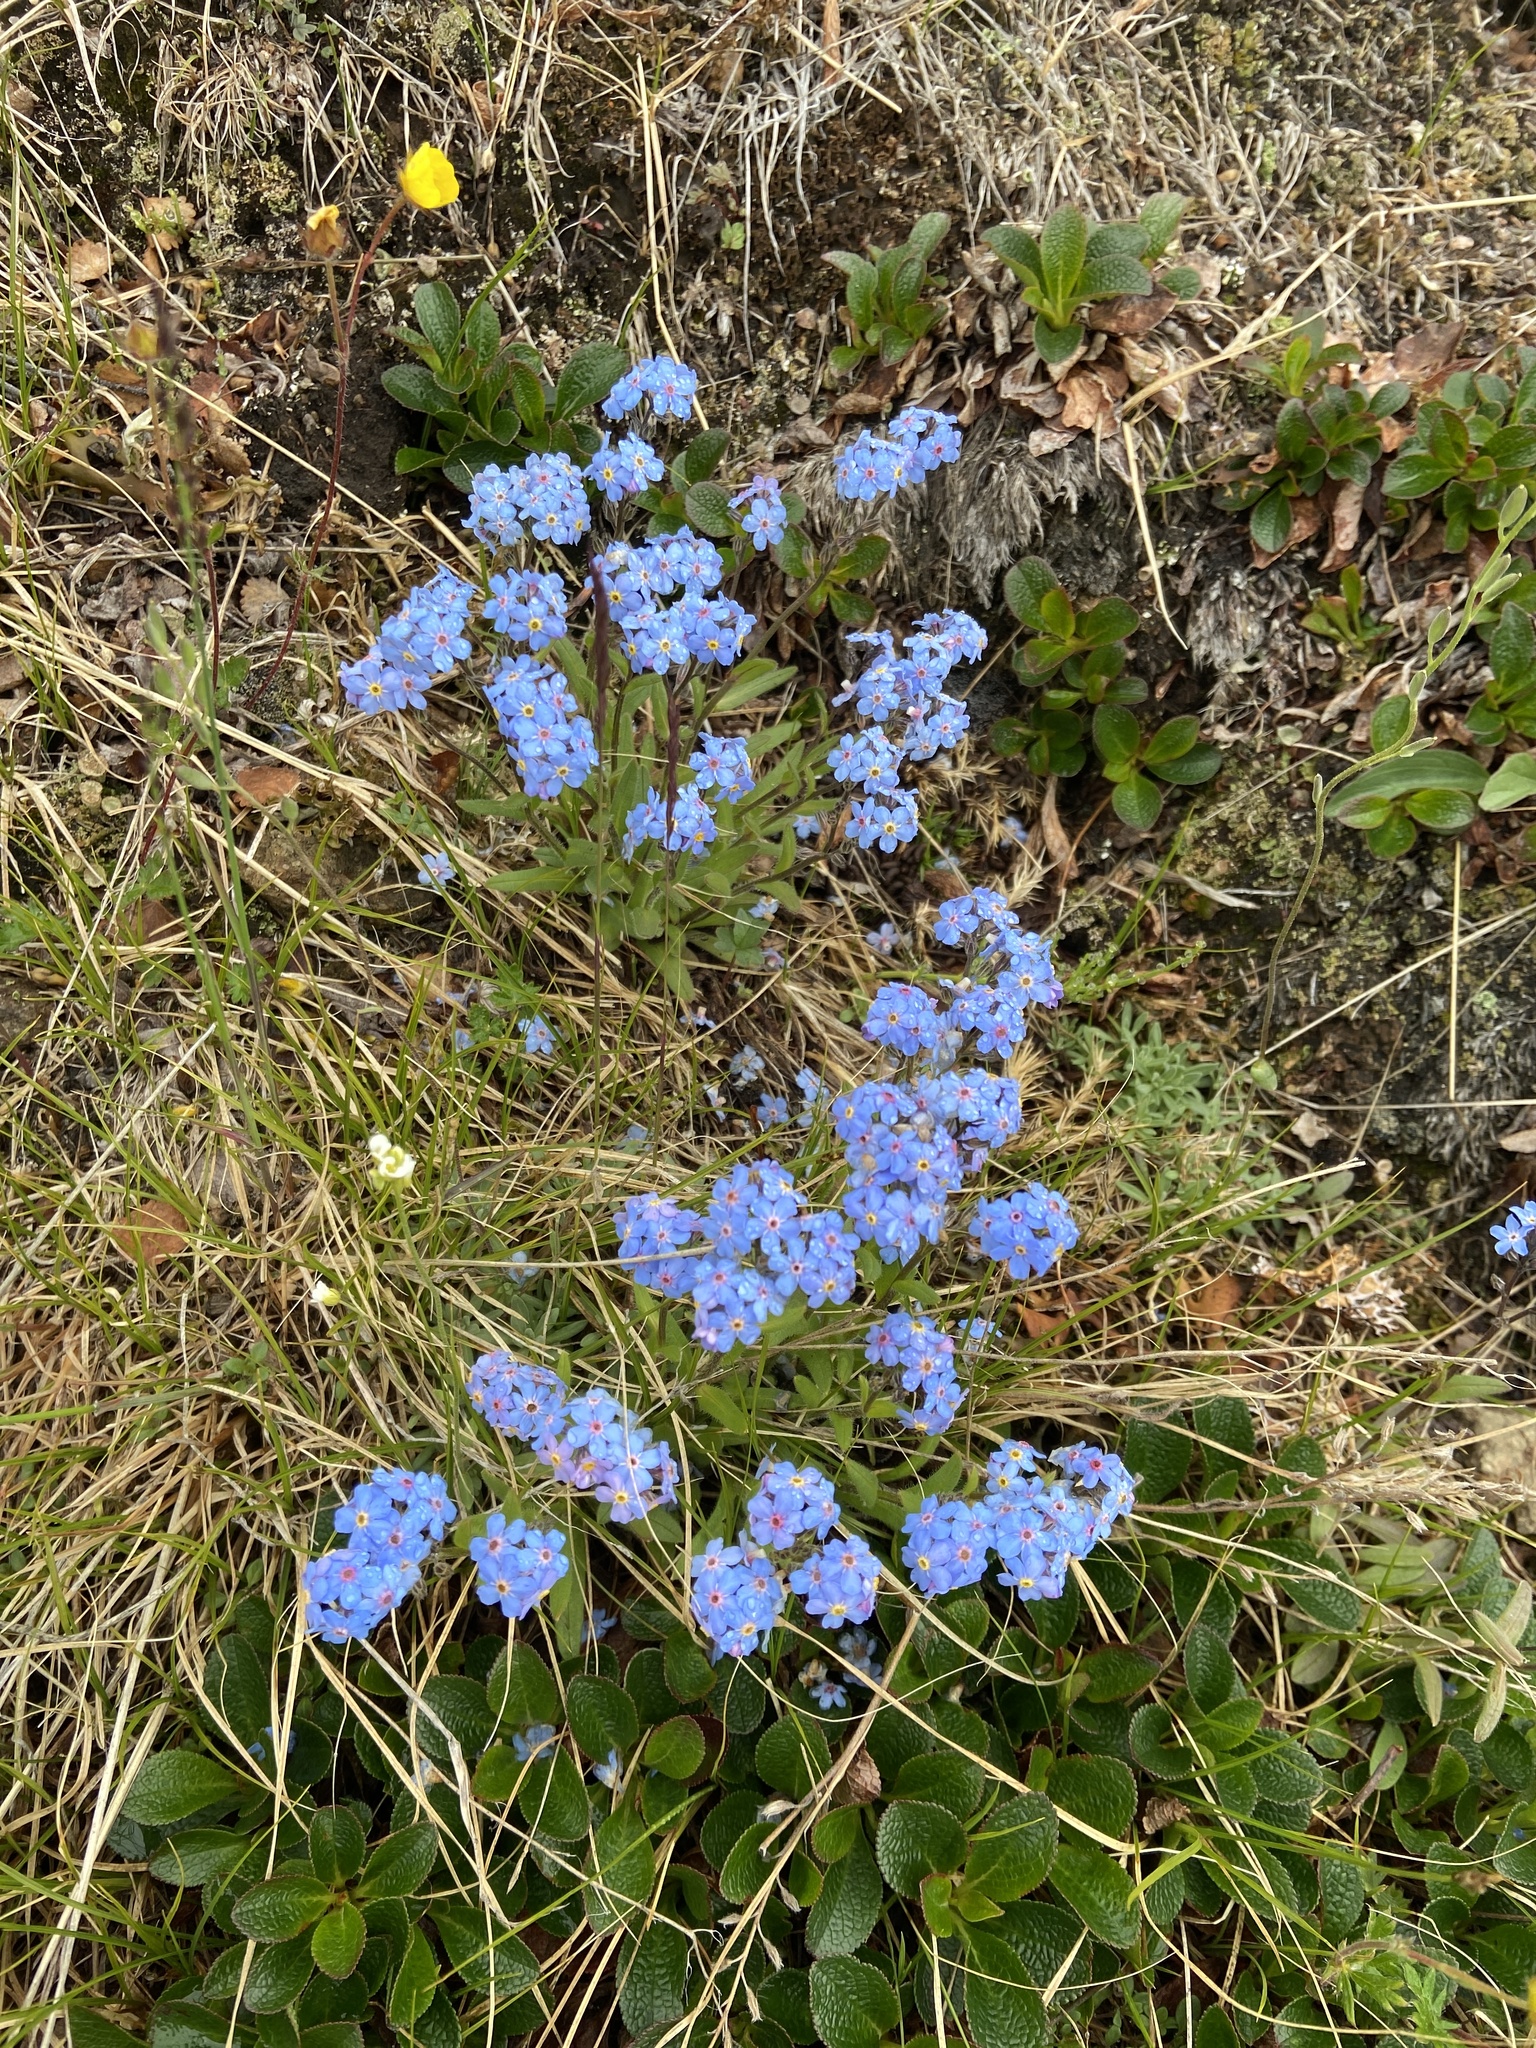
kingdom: Plantae
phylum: Tracheophyta
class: Magnoliopsida
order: Boraginales
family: Boraginaceae
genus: Myosotis
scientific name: Myosotis asiatica
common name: Asian forget-me-not
